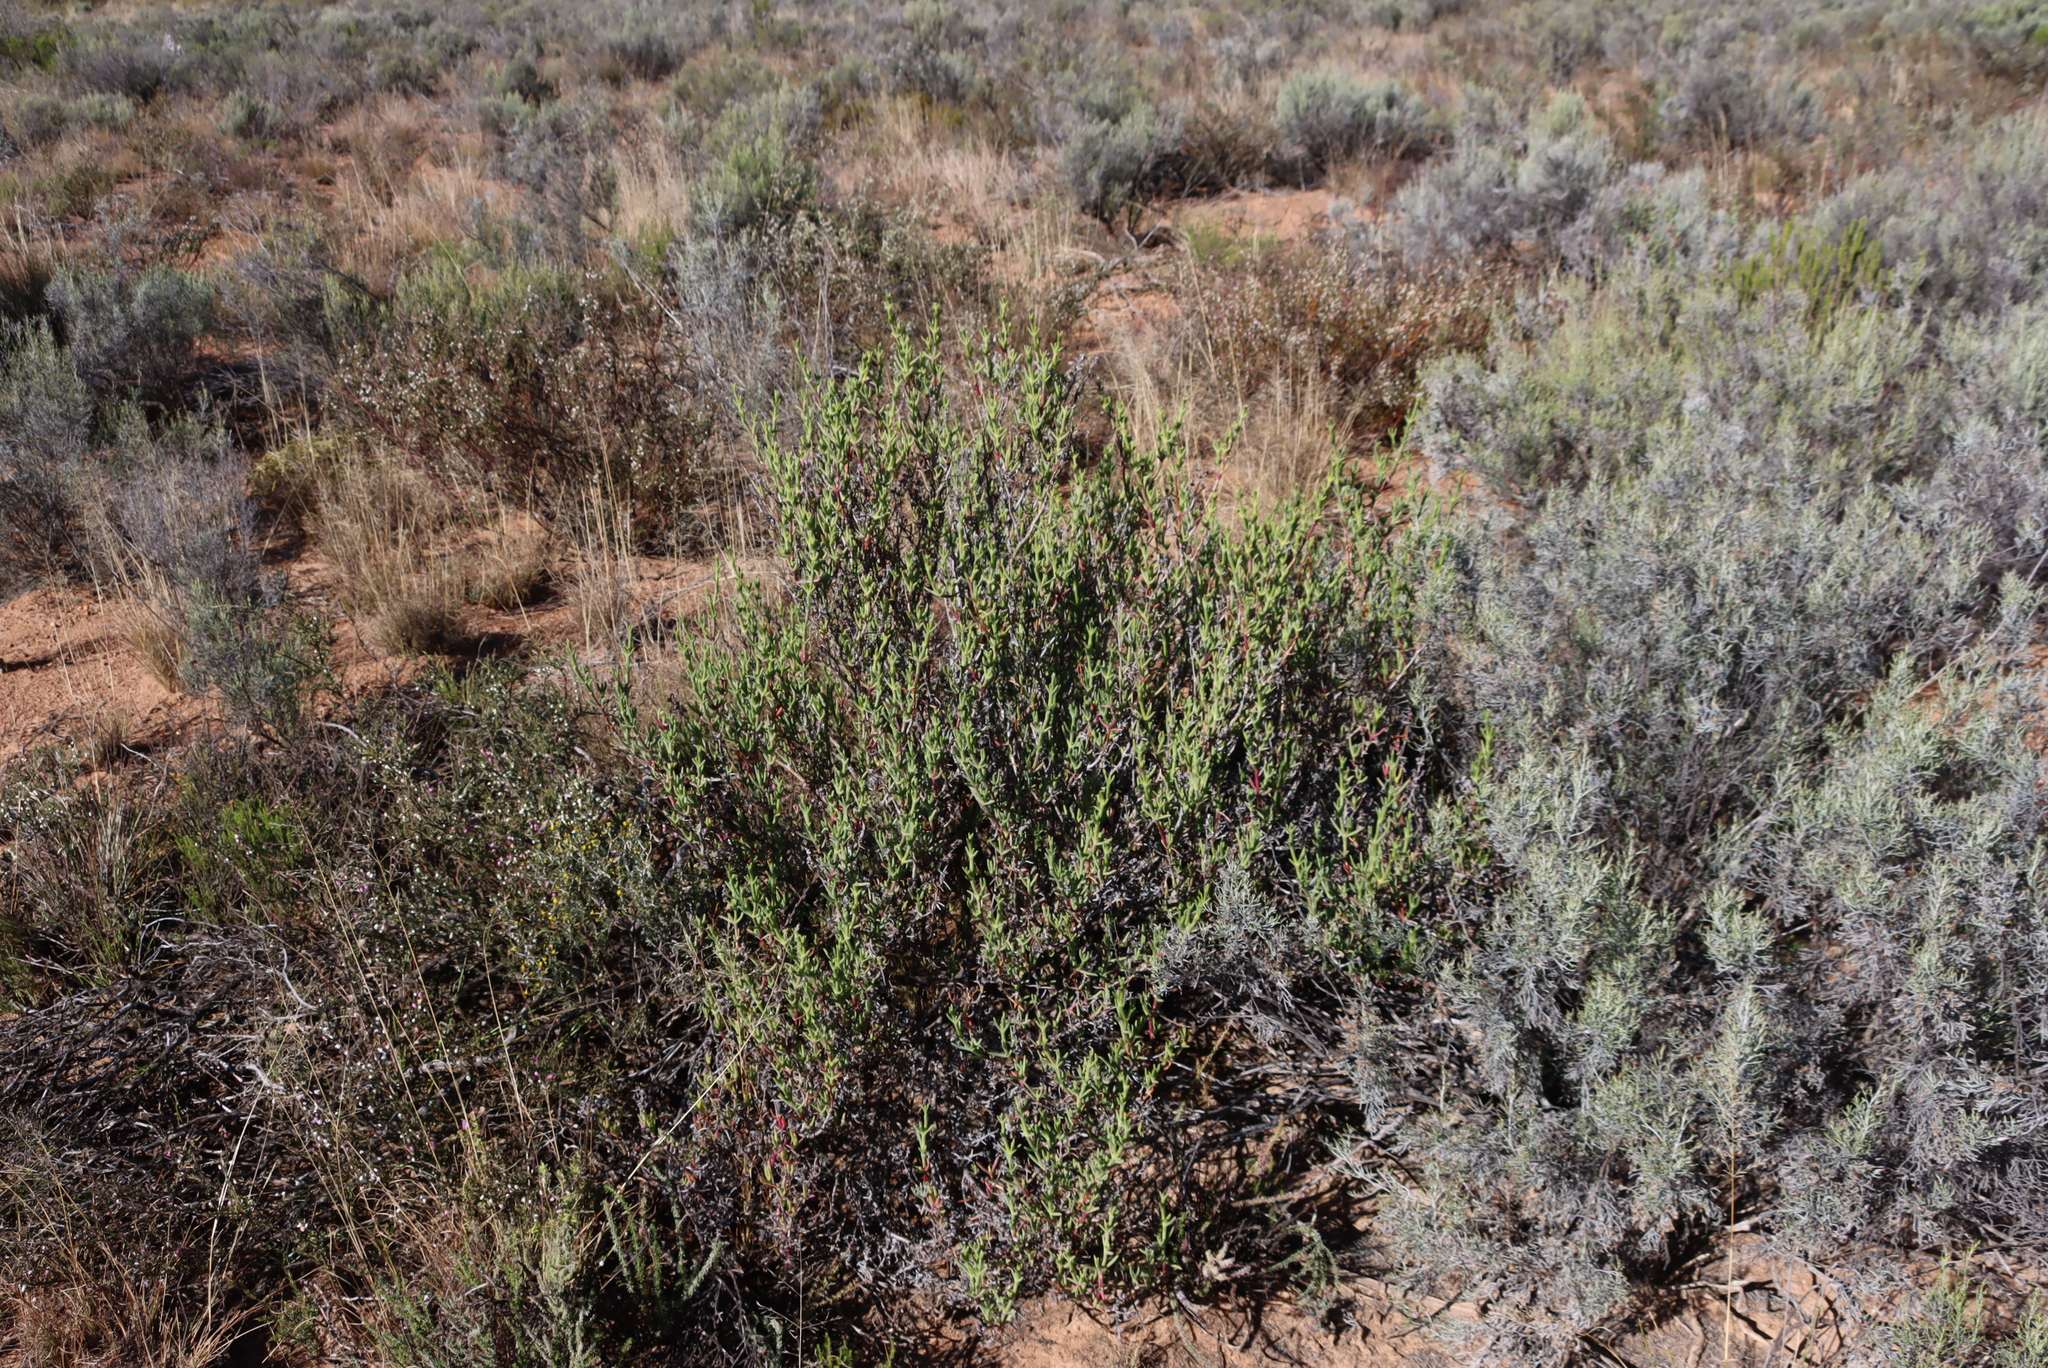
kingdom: Plantae
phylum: Tracheophyta
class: Magnoliopsida
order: Asterales
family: Asteraceae
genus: Dicerothamnus
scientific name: Dicerothamnus rhinocerotis
